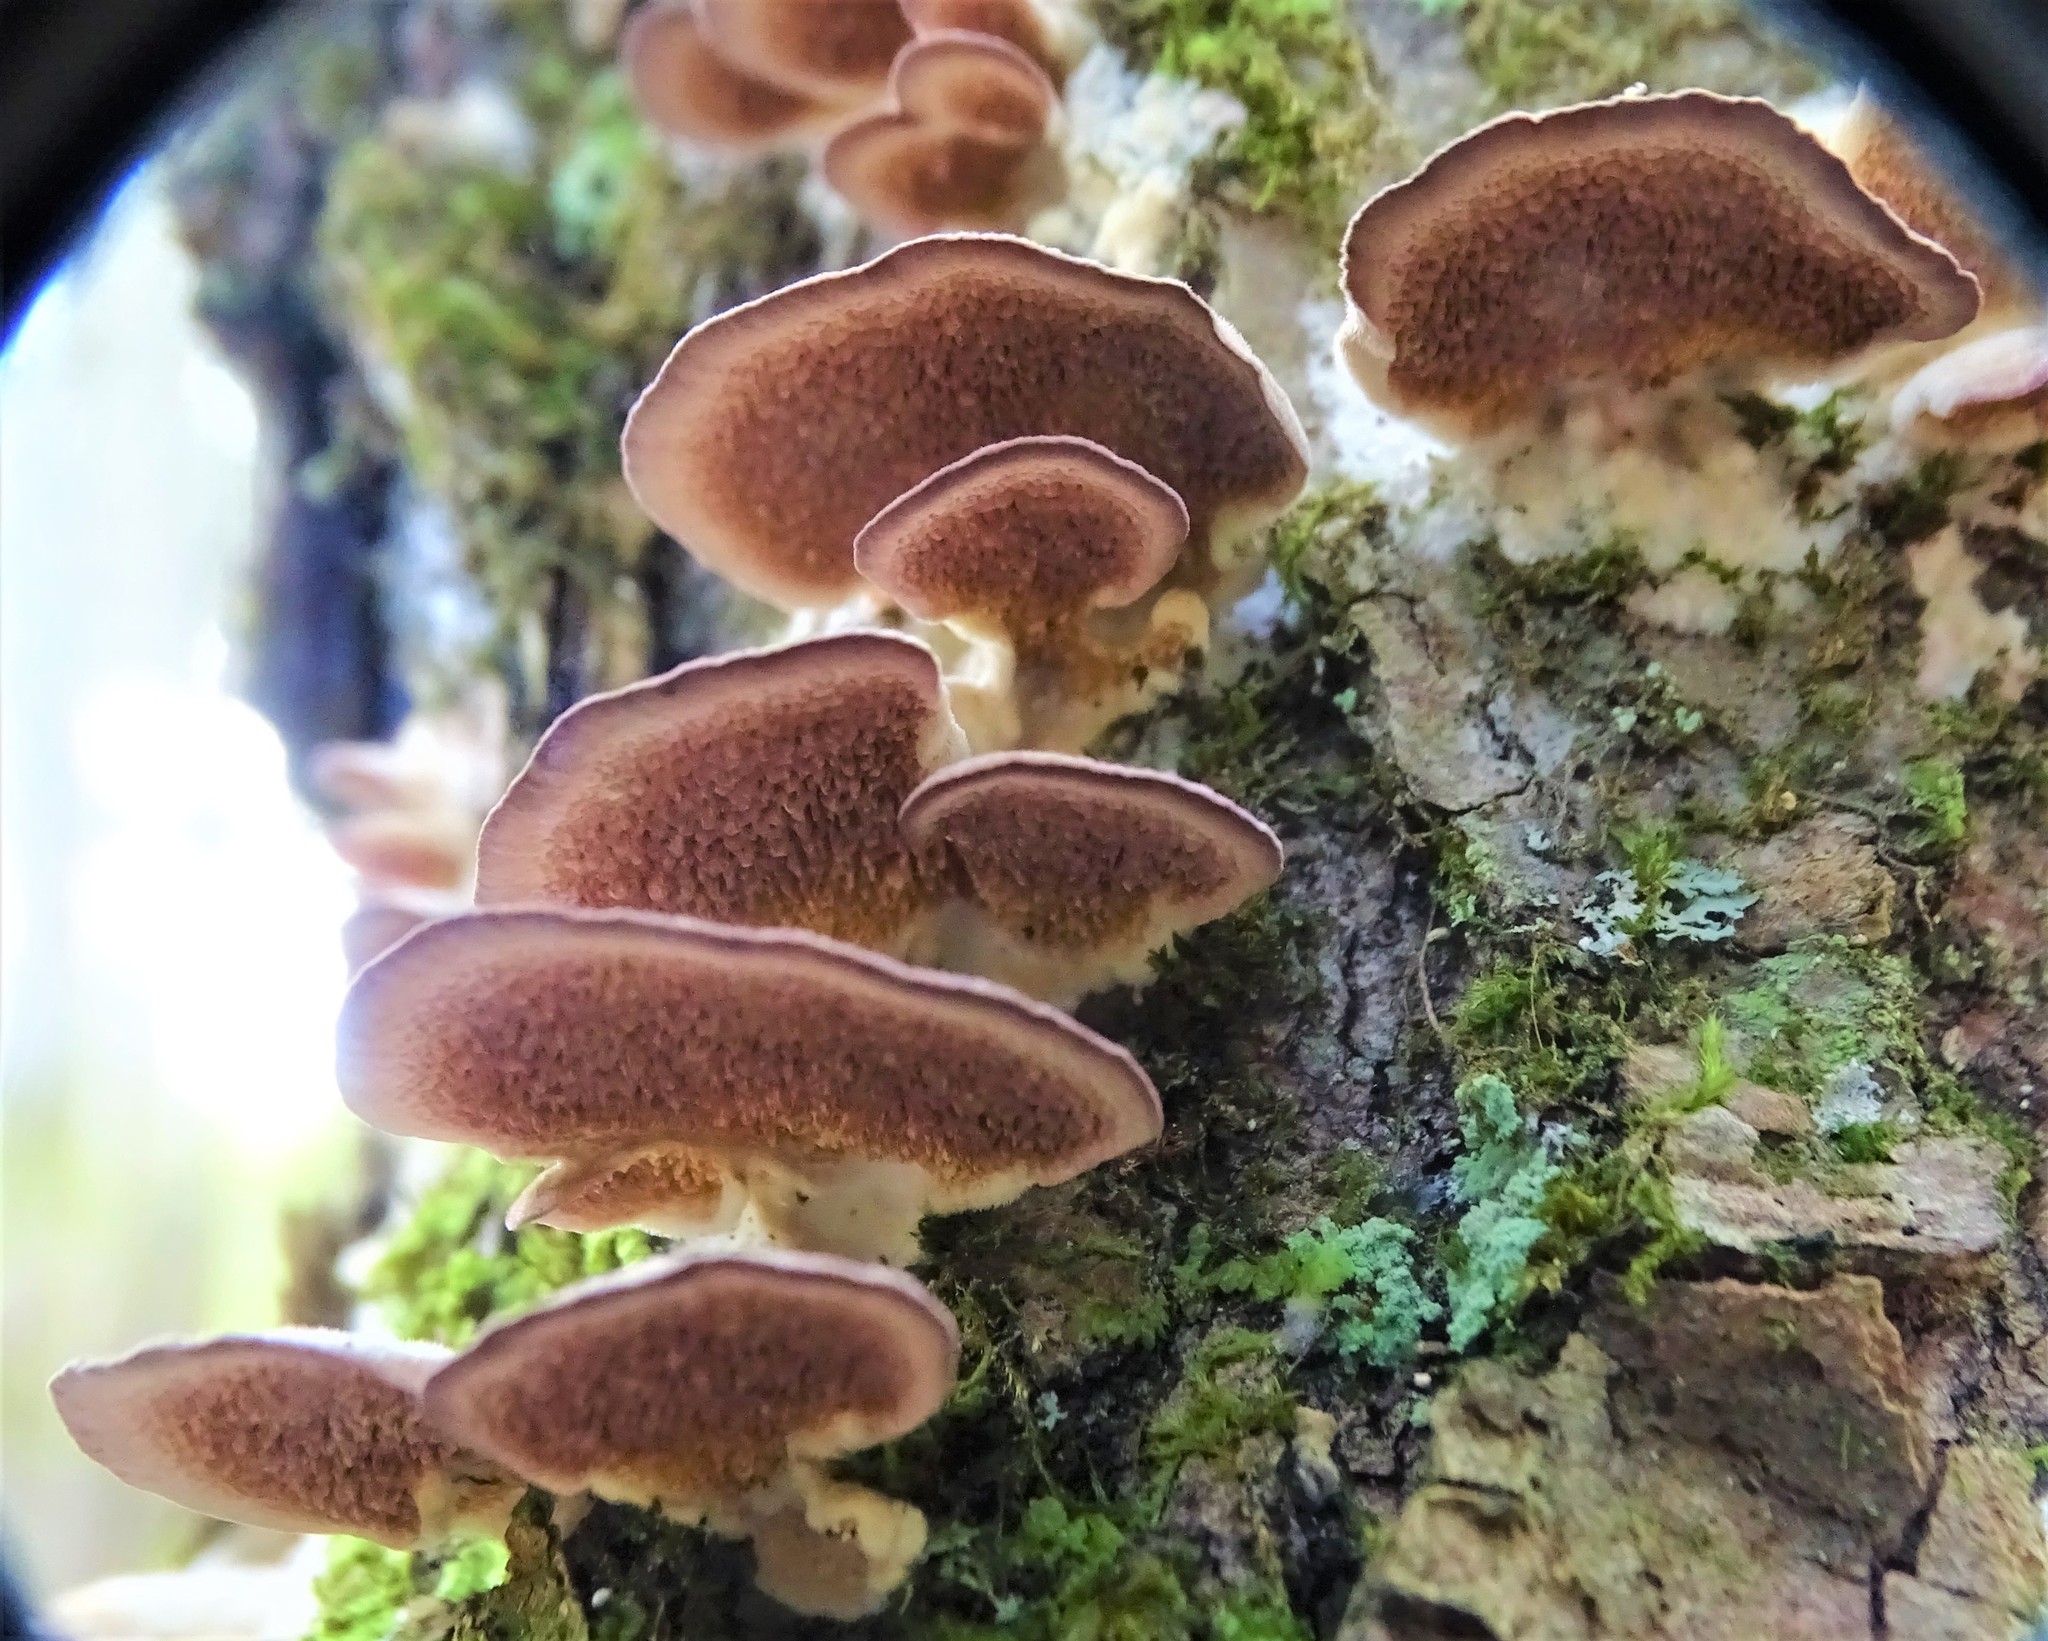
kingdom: Fungi
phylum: Basidiomycota
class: Agaricomycetes
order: Hymenochaetales
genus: Trichaptum
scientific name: Trichaptum biforme
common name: Violet-toothed polypore
